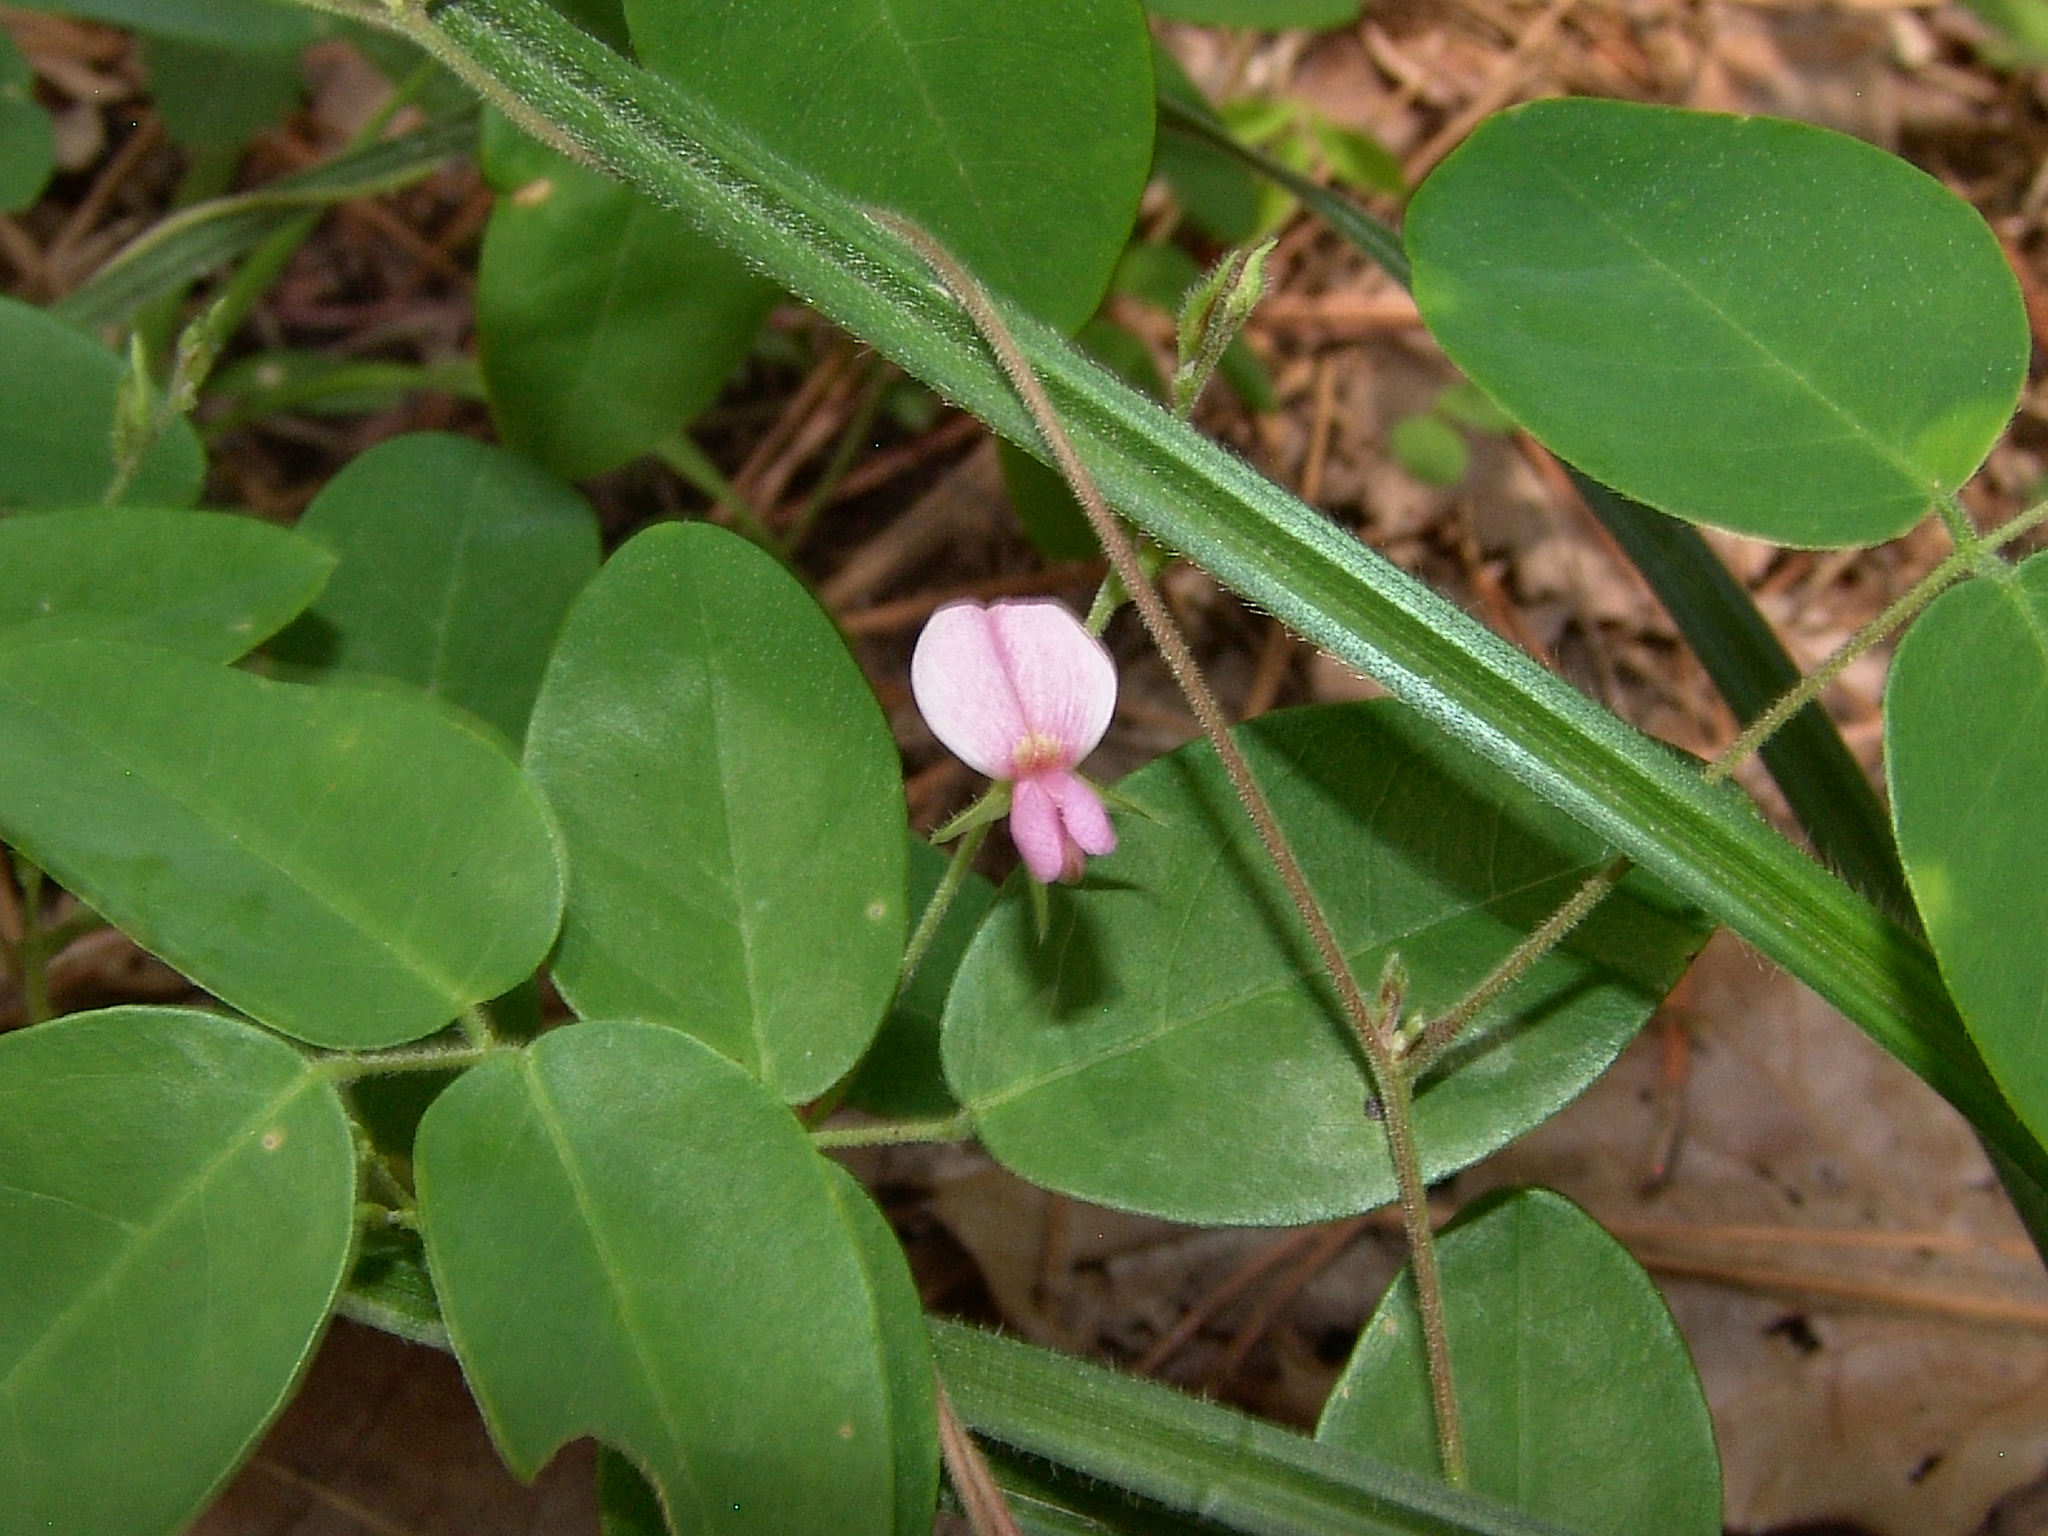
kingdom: Plantae
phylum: Tracheophyta
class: Magnoliopsida
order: Fabales
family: Fabaceae
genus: Galactia
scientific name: Galactia regularis
